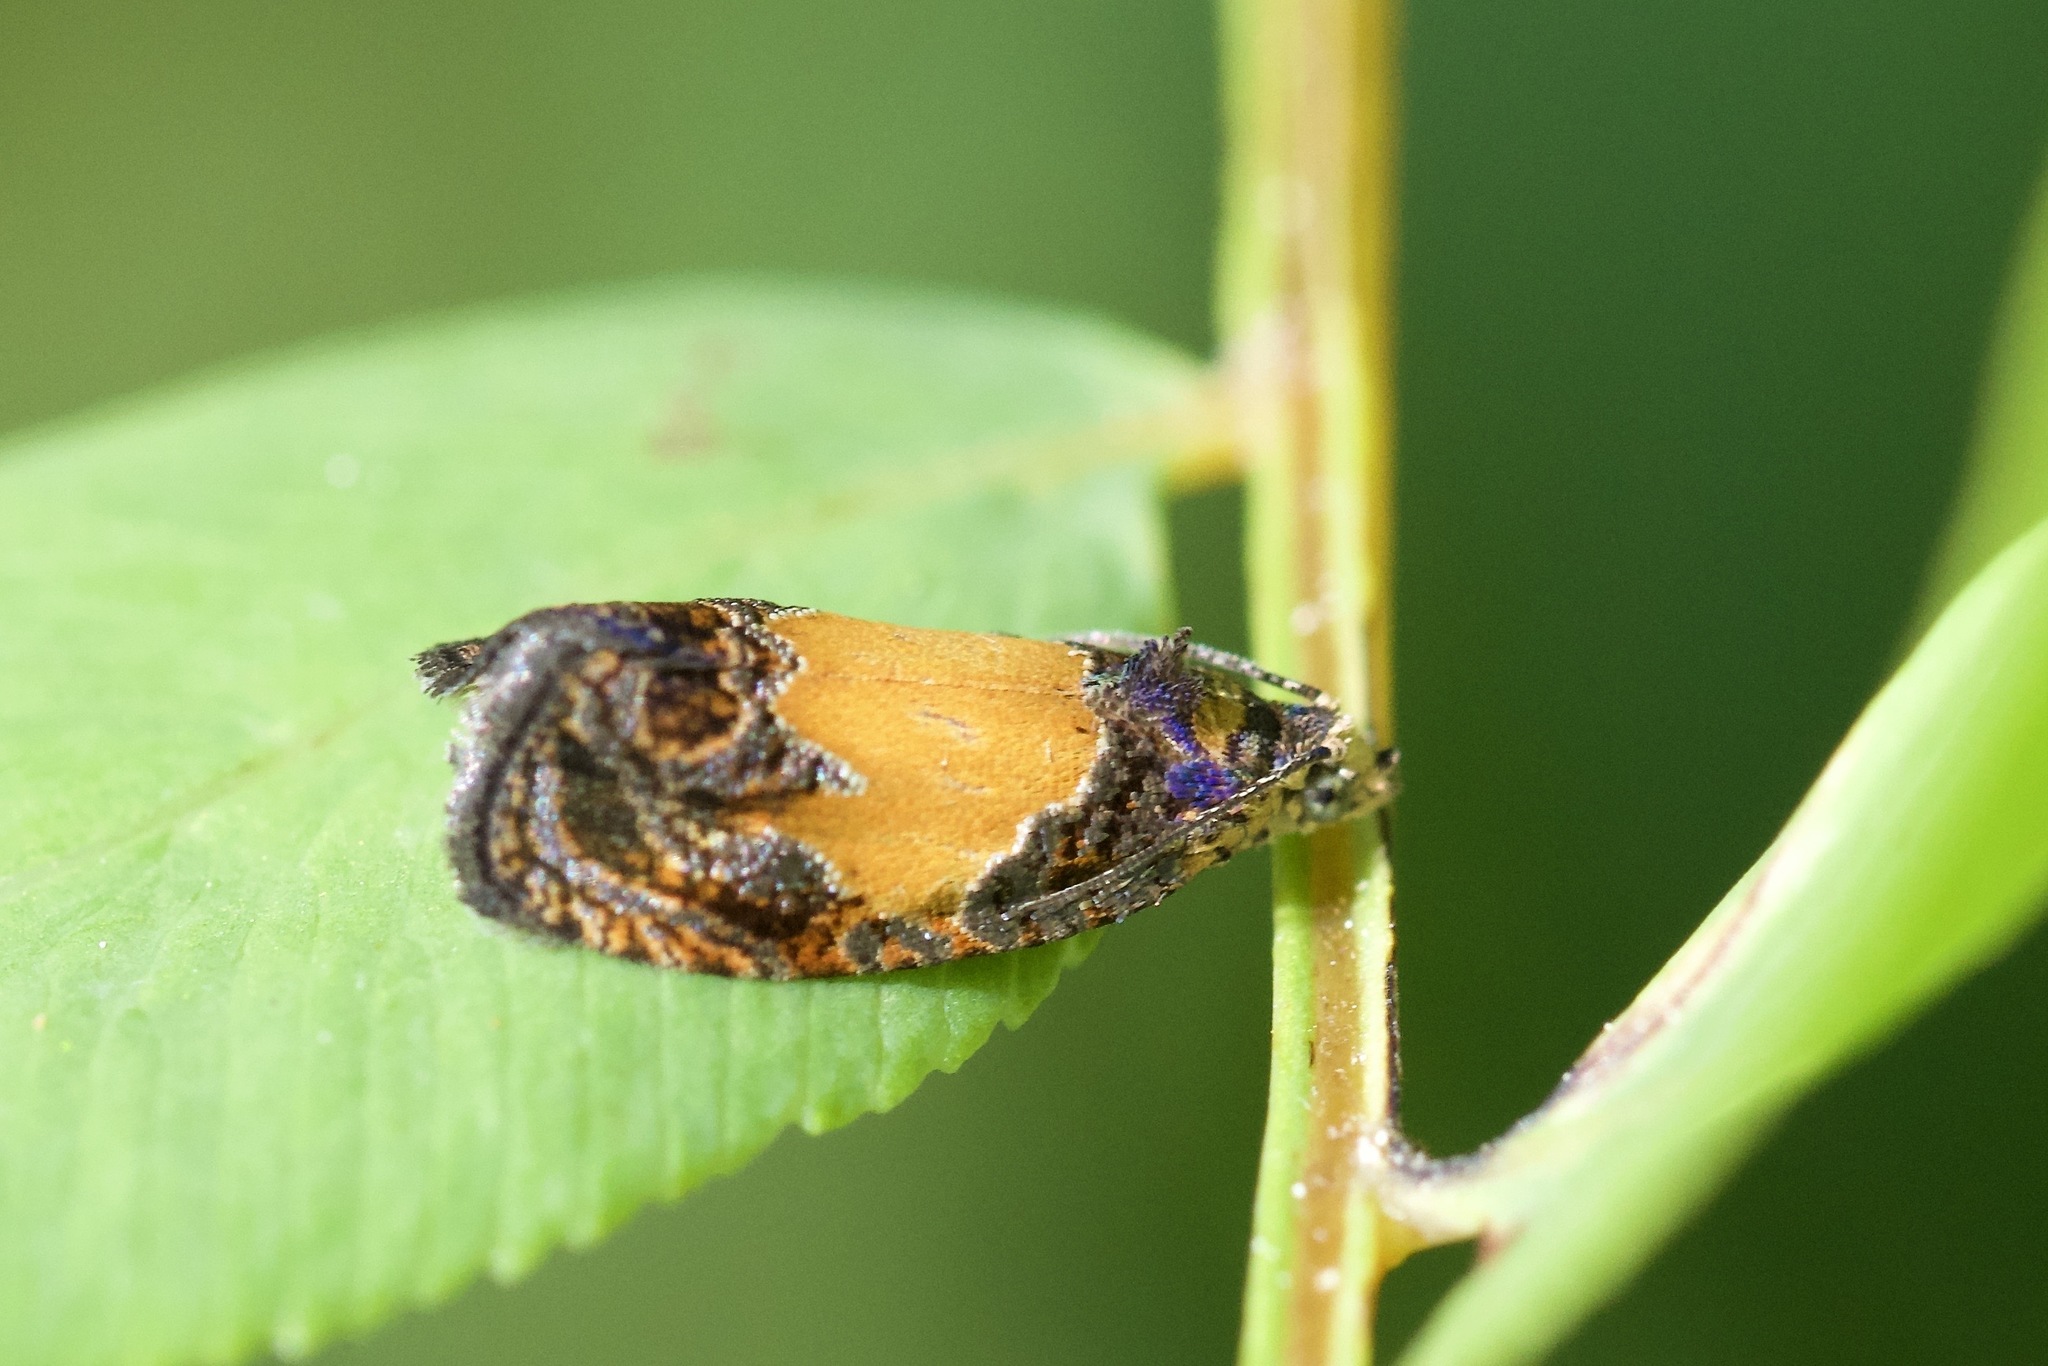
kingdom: Animalia
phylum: Arthropoda
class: Insecta
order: Lepidoptera
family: Tortricidae
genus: Olethreutes
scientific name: Olethreutes osmundana
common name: Fern olethreutes moth
